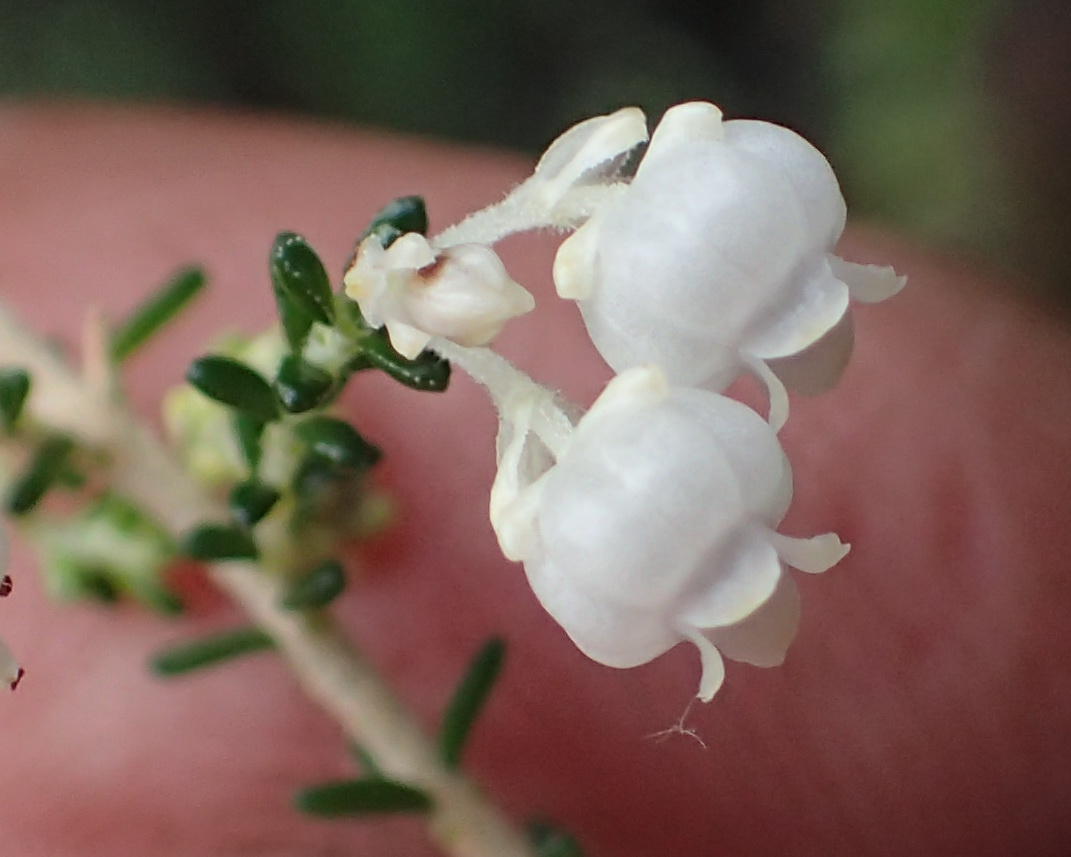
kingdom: Plantae
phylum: Tracheophyta
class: Magnoliopsida
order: Ericales
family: Ericaceae
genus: Erica
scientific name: Erica formosa
